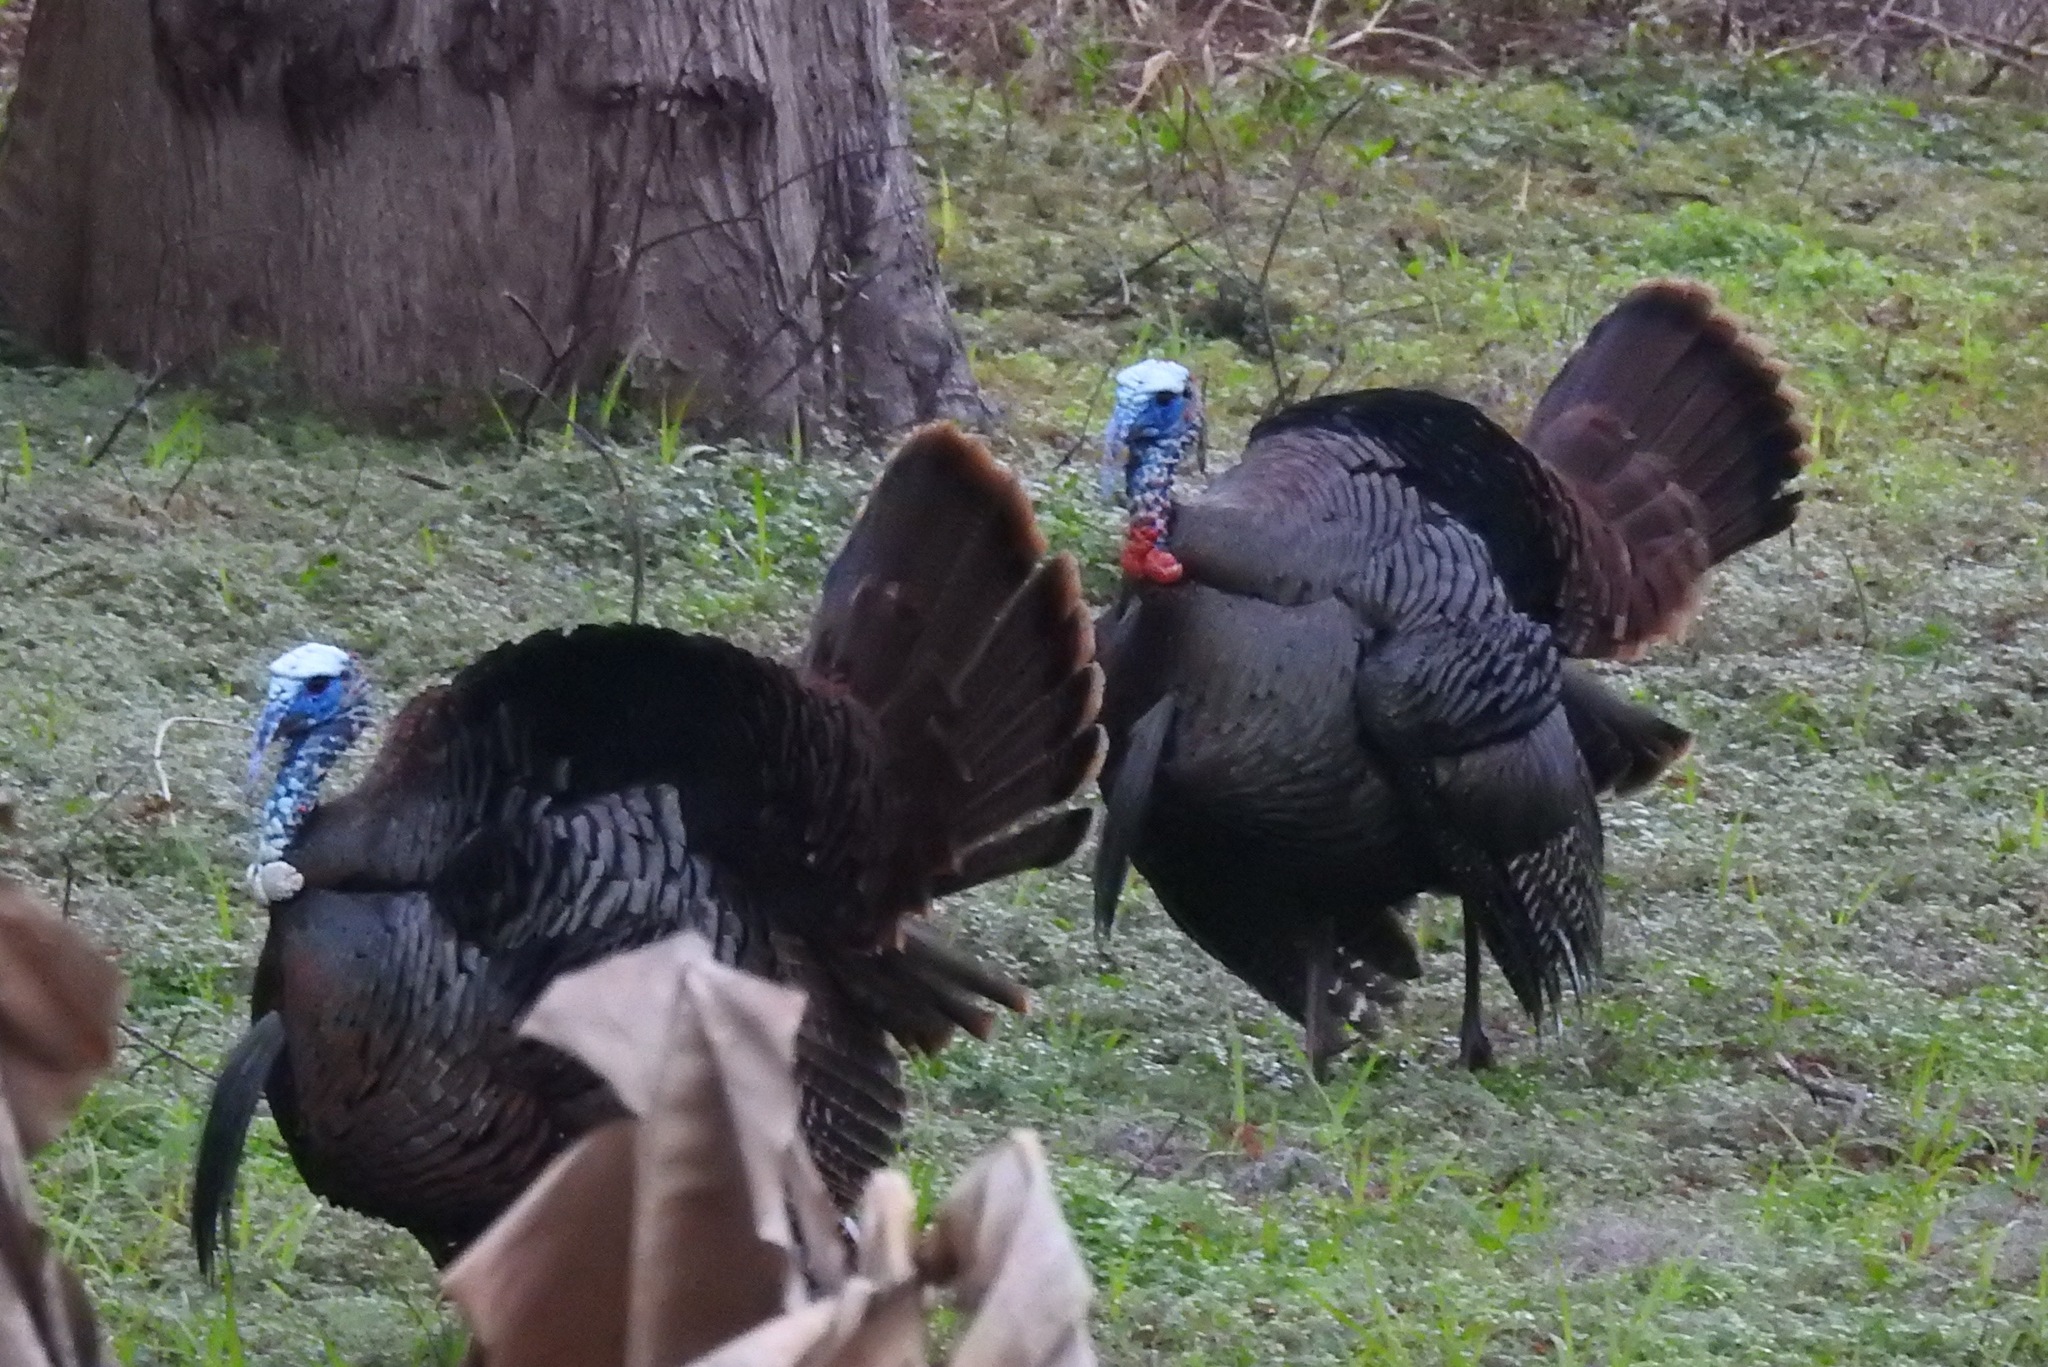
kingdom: Animalia
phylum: Chordata
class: Aves
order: Galliformes
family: Phasianidae
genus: Meleagris
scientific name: Meleagris gallopavo
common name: Wild turkey
